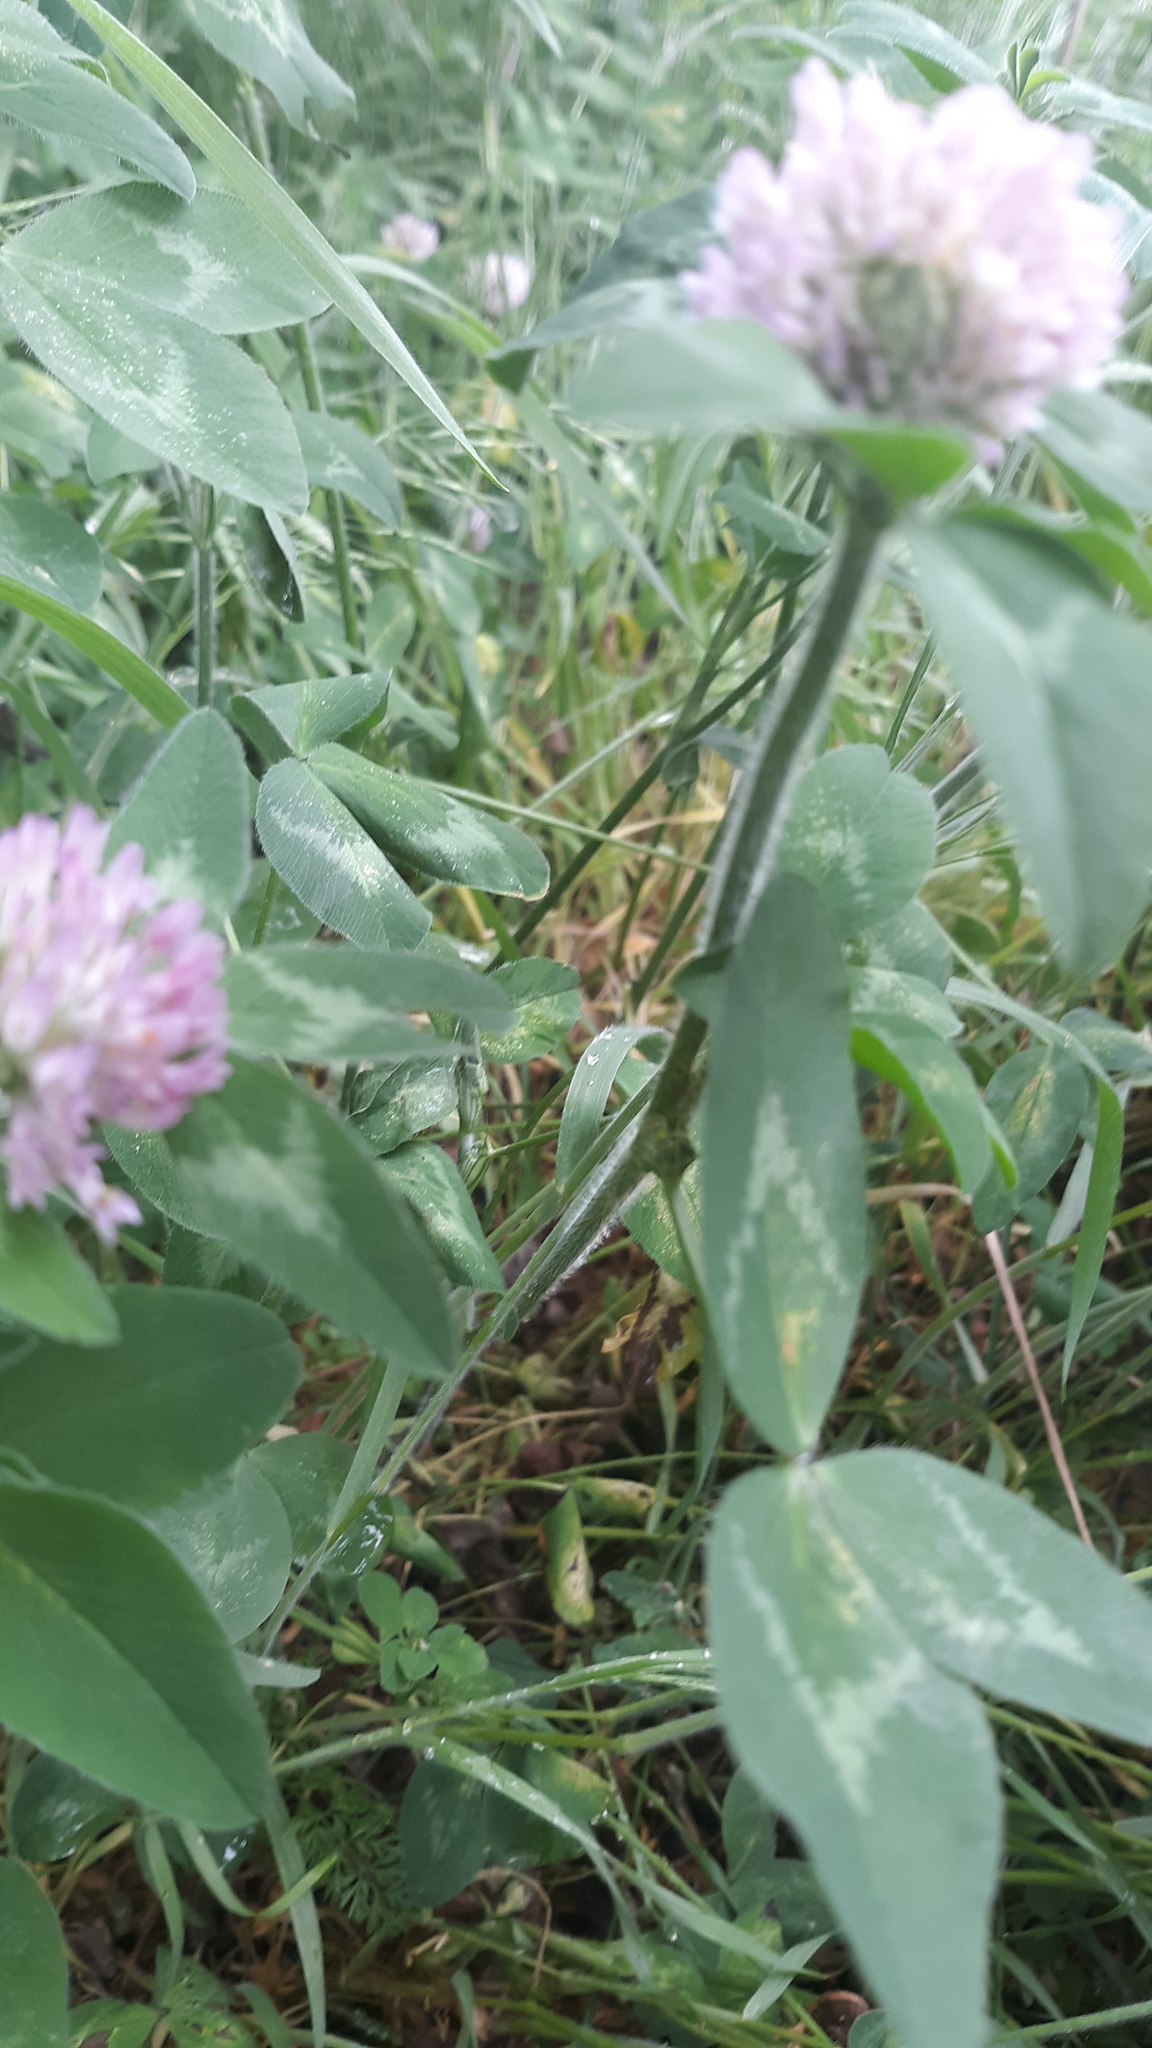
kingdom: Plantae
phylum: Tracheophyta
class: Magnoliopsida
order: Fabales
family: Fabaceae
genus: Trifolium
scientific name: Trifolium pratense
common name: Red clover
